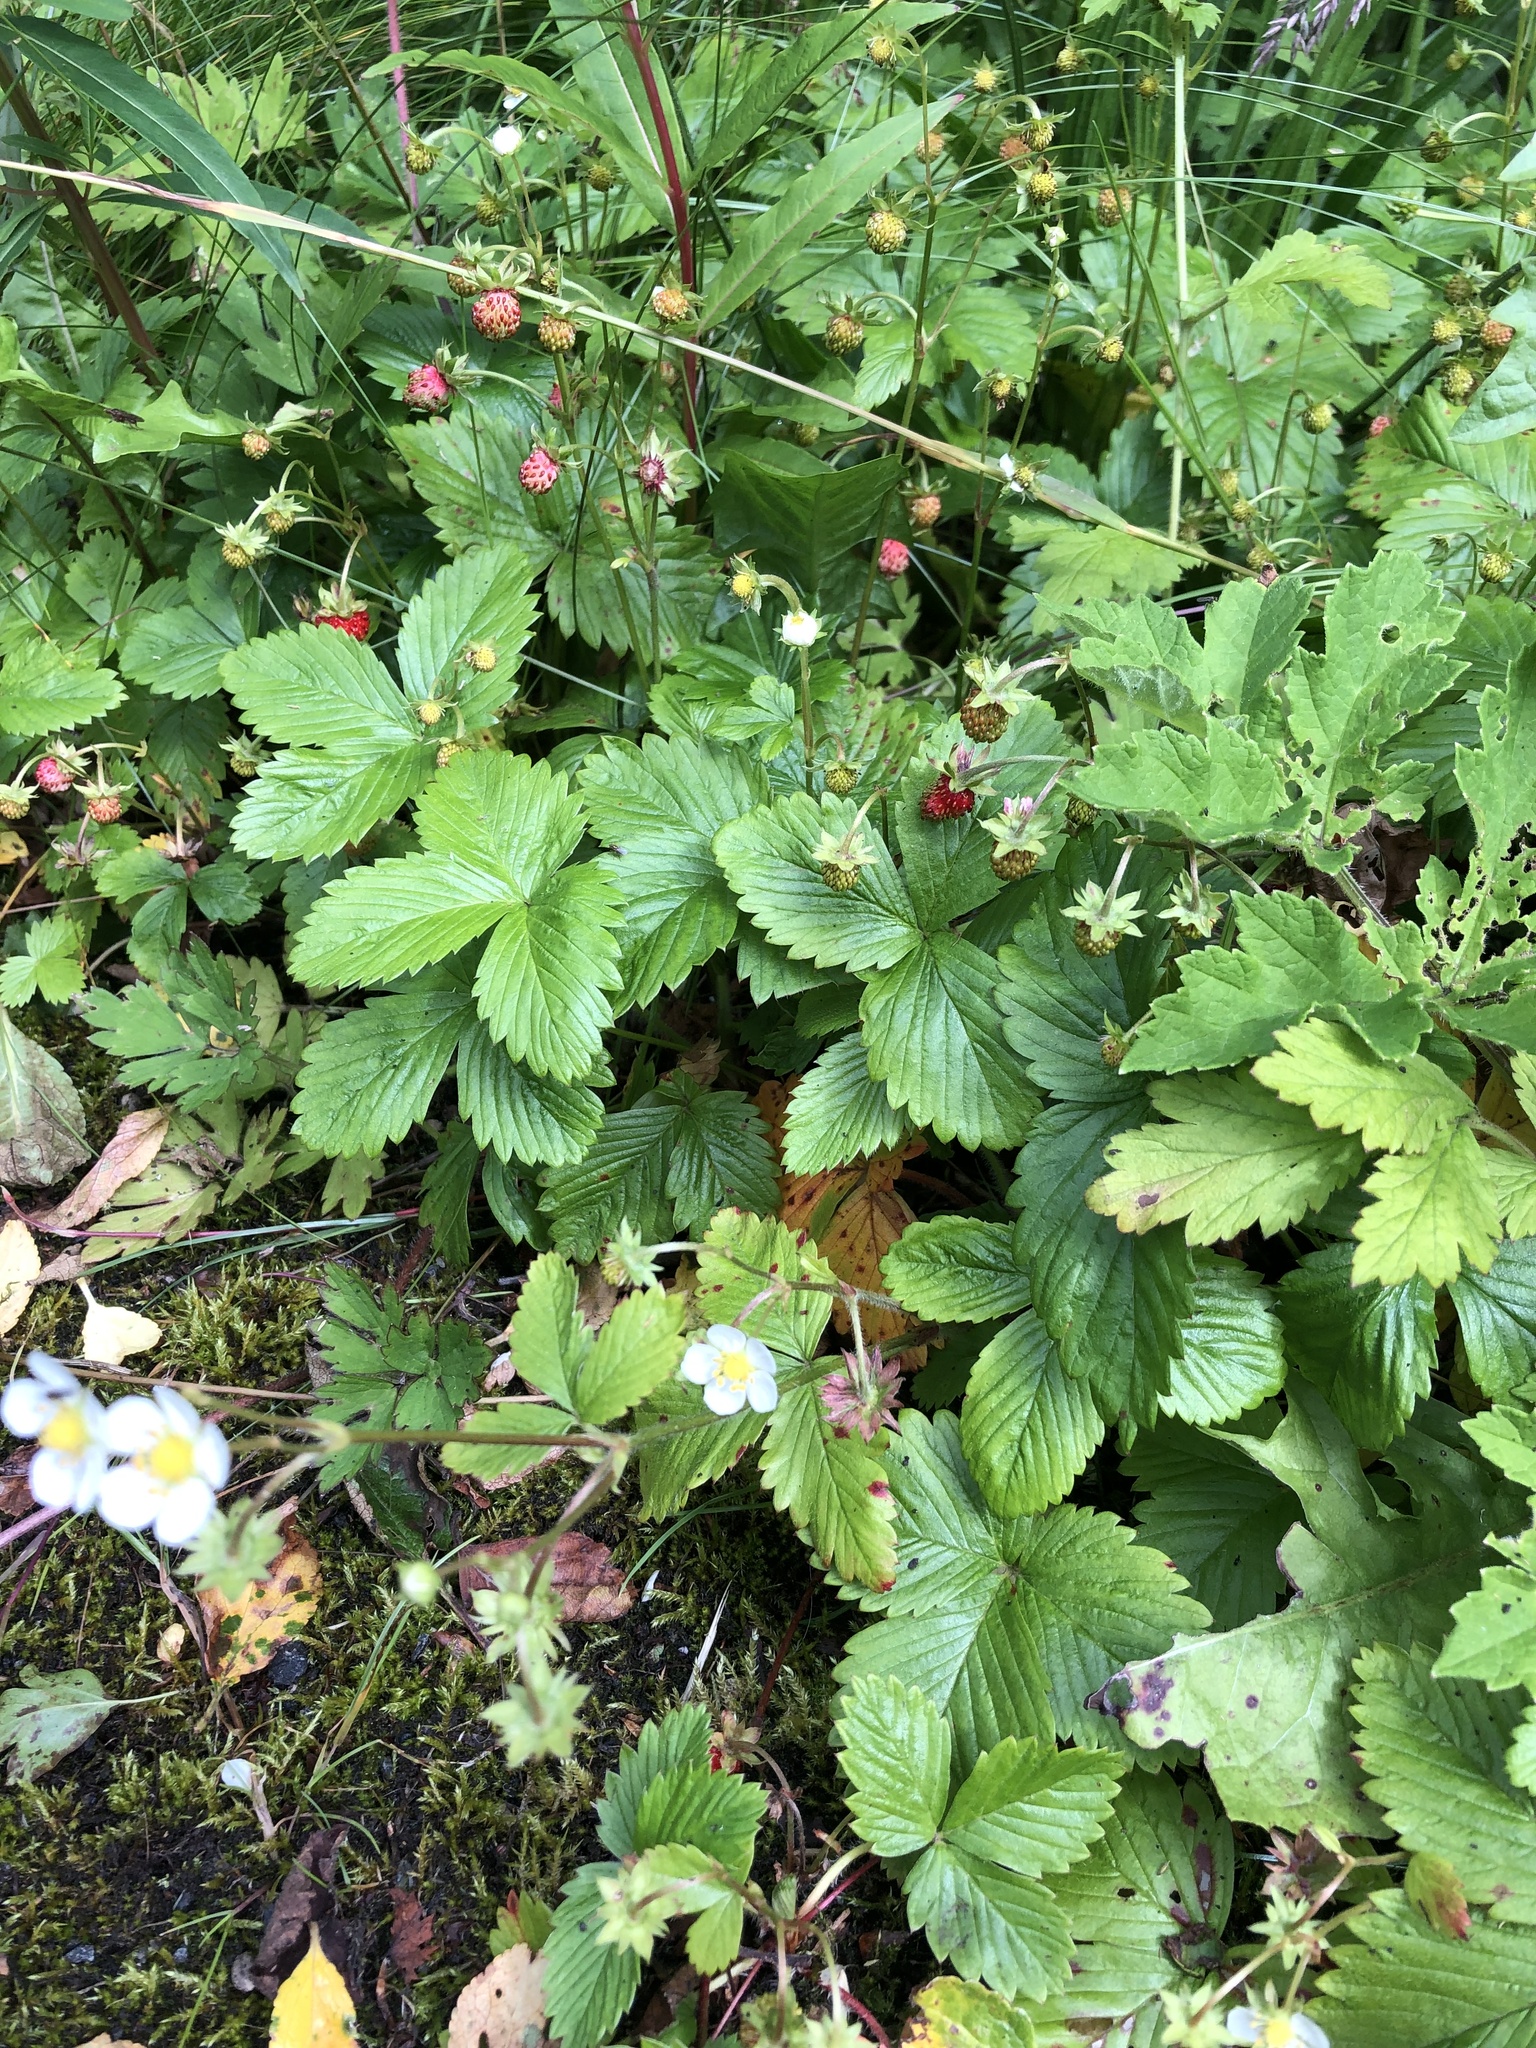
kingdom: Plantae
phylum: Tracheophyta
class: Magnoliopsida
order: Rosales
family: Rosaceae
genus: Fragaria
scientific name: Fragaria vesca
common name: Wild strawberry
